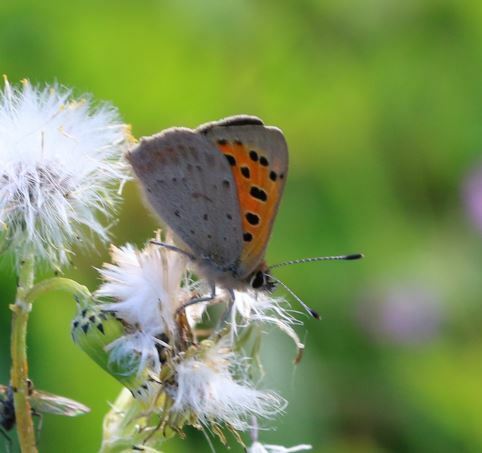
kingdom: Animalia
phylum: Arthropoda
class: Insecta
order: Lepidoptera
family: Lycaenidae
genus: Lycaena
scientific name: Lycaena phlaeas
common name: Small copper
